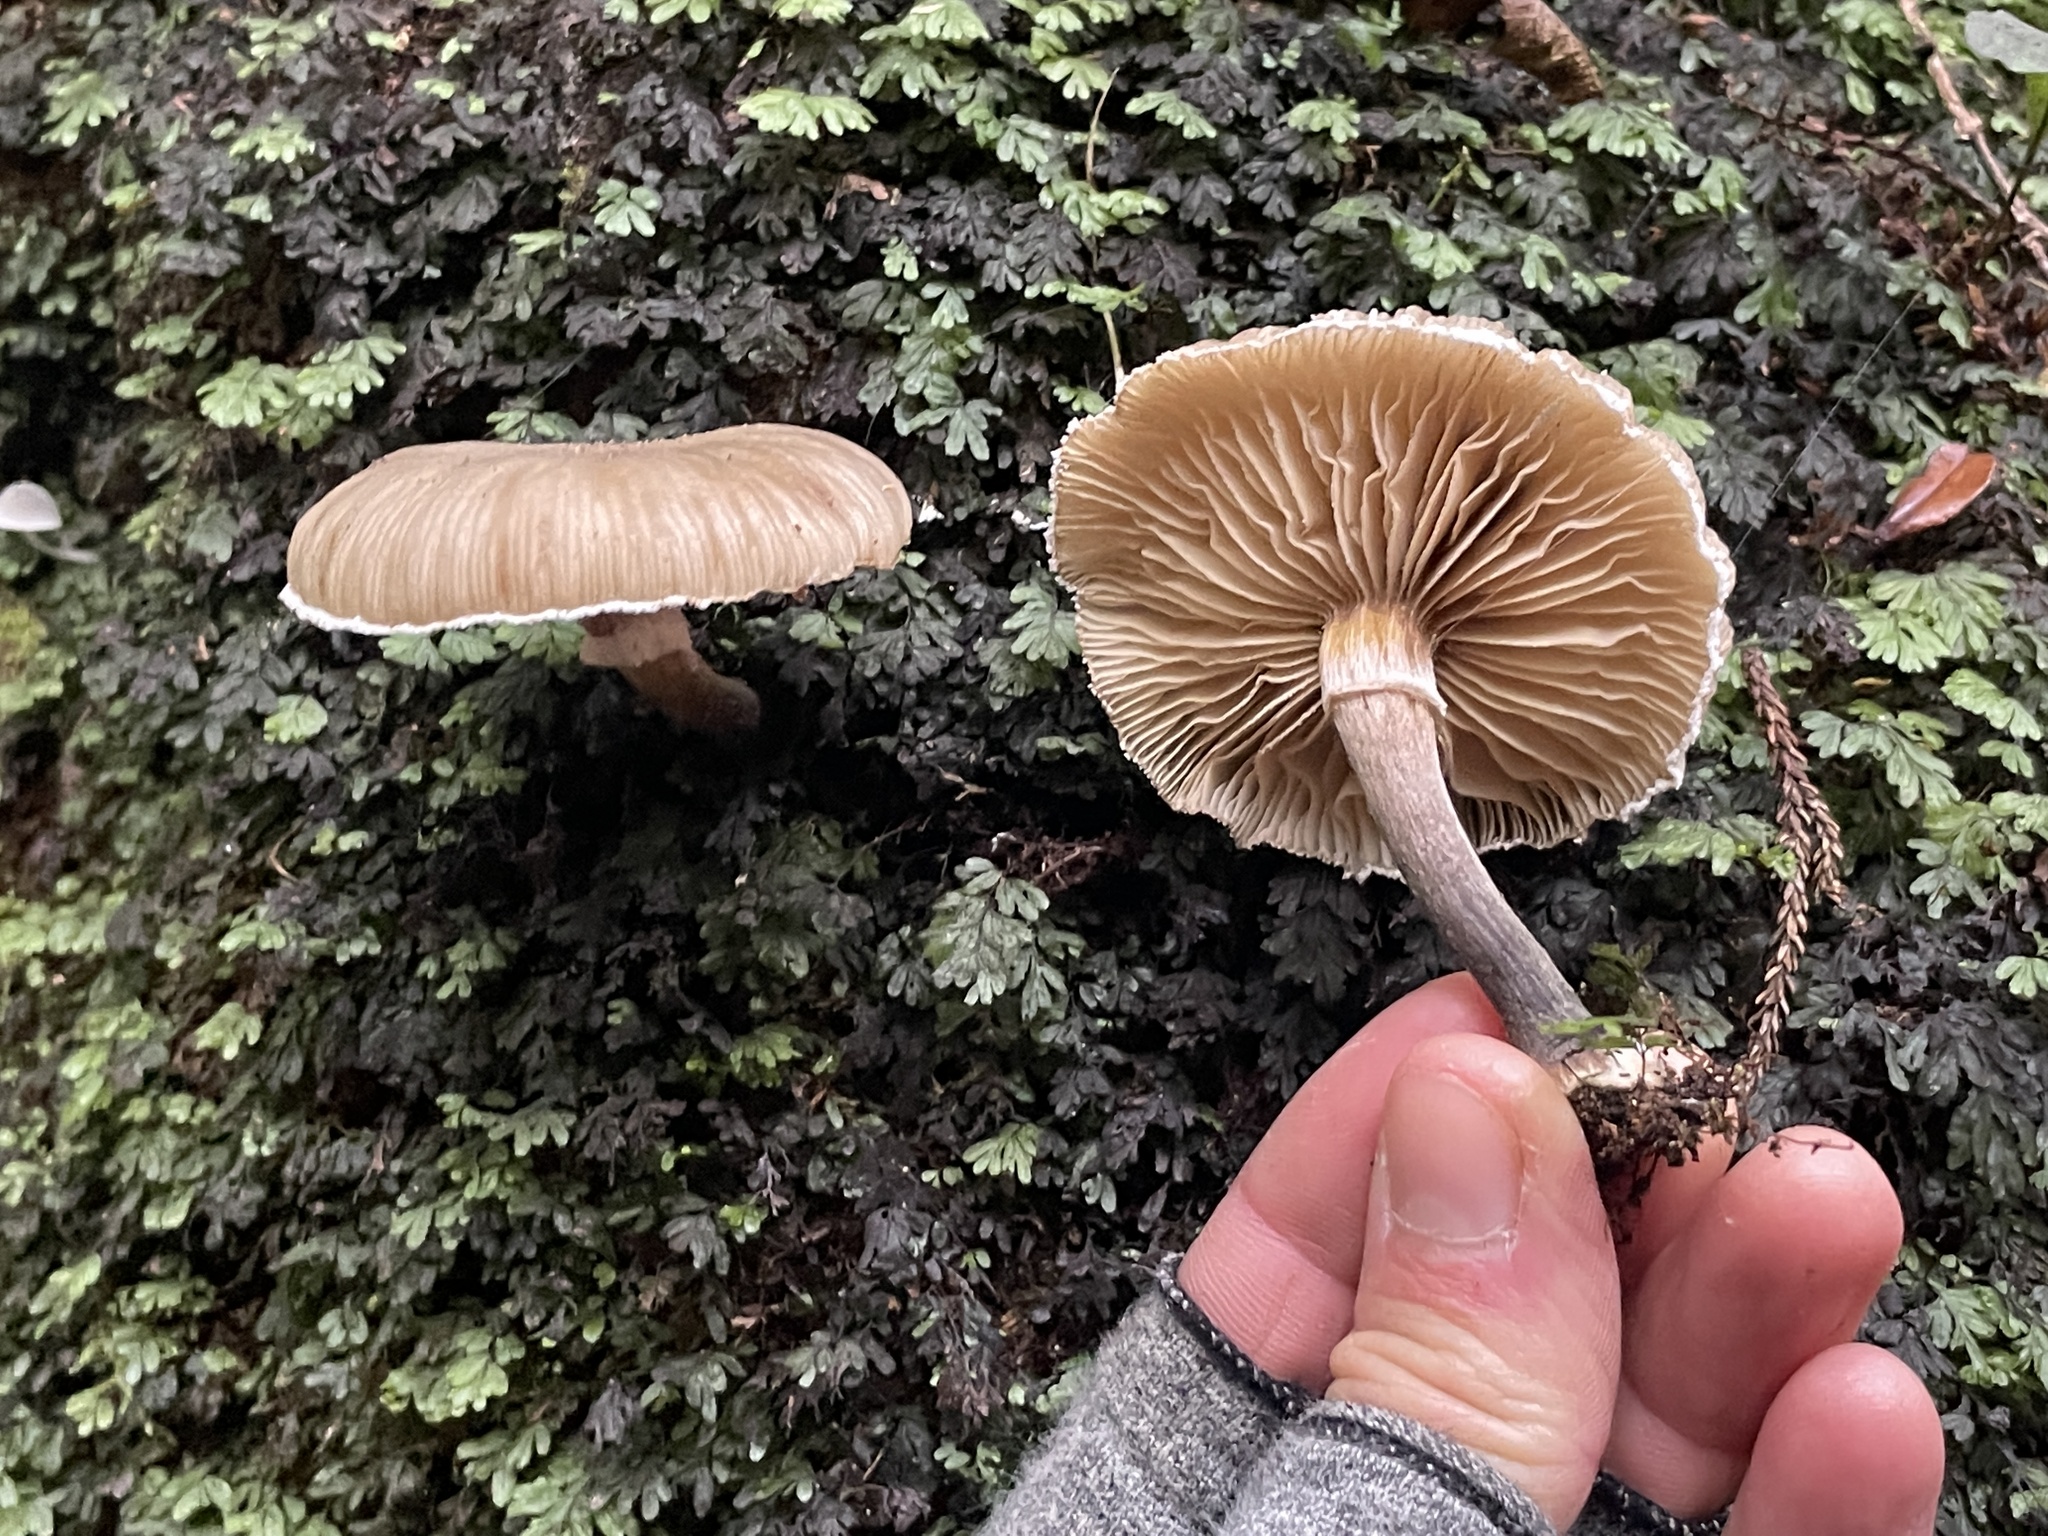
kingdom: Fungi
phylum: Basidiomycota
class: Agaricomycetes
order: Agaricales
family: Physalacriaceae
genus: Armillaria
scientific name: Armillaria novae-zelandiae
